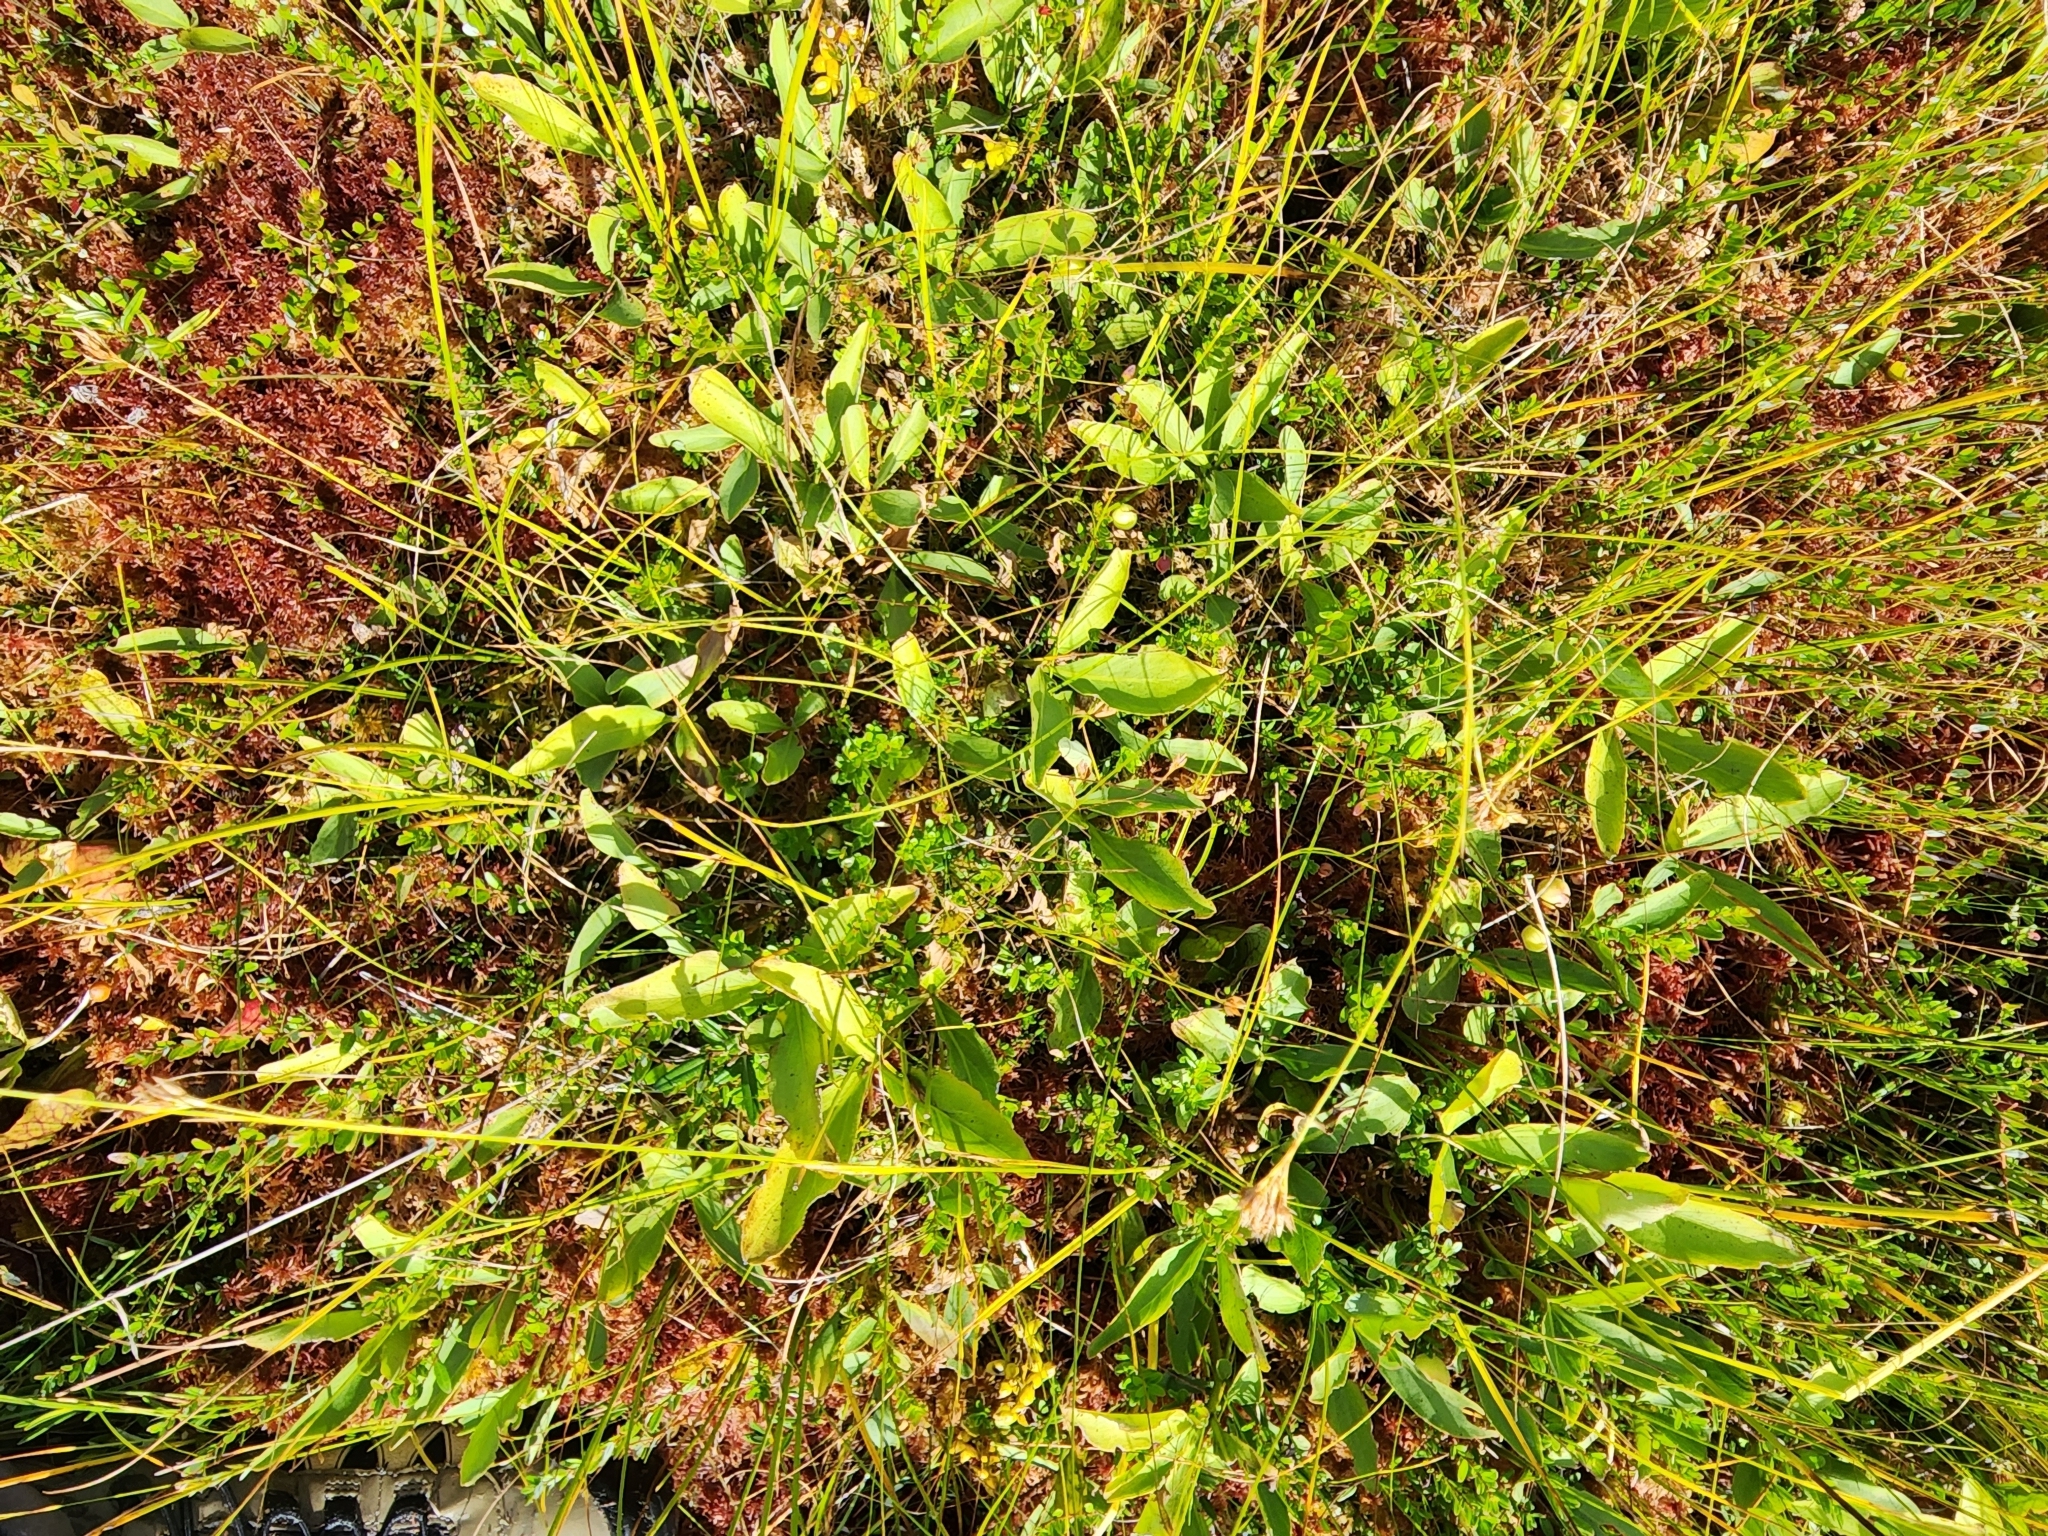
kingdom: Plantae
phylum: Tracheophyta
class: Magnoliopsida
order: Asterales
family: Menyanthaceae
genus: Menyanthes
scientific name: Menyanthes trifoliata
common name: Bogbean
